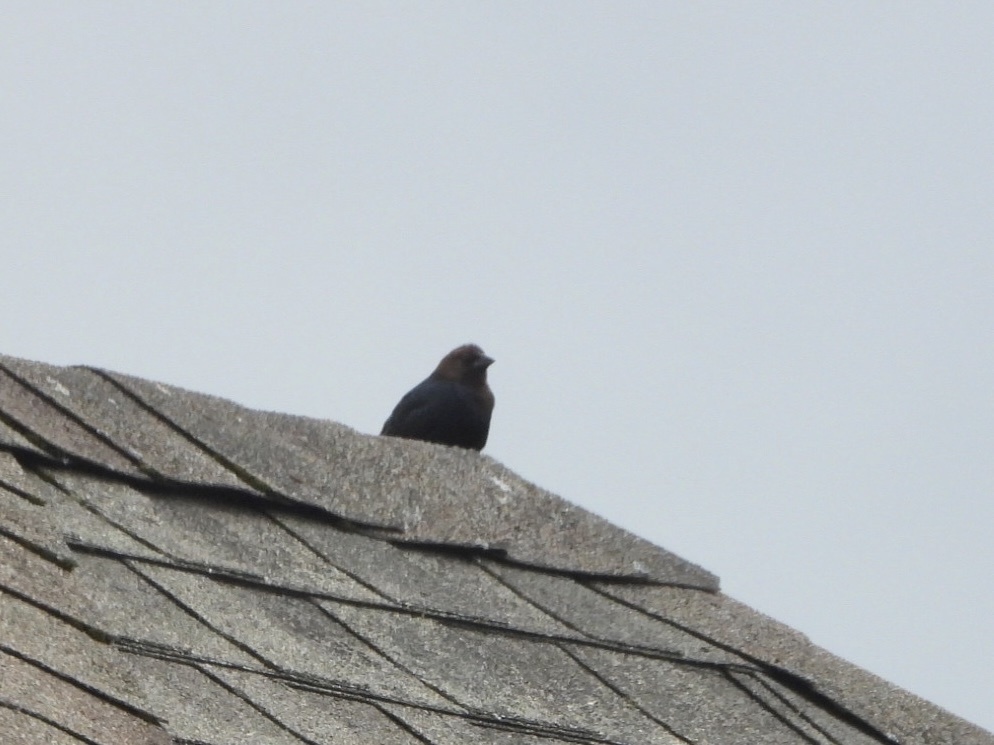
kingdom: Animalia
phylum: Chordata
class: Aves
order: Passeriformes
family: Icteridae
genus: Molothrus
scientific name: Molothrus ater
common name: Brown-headed cowbird
